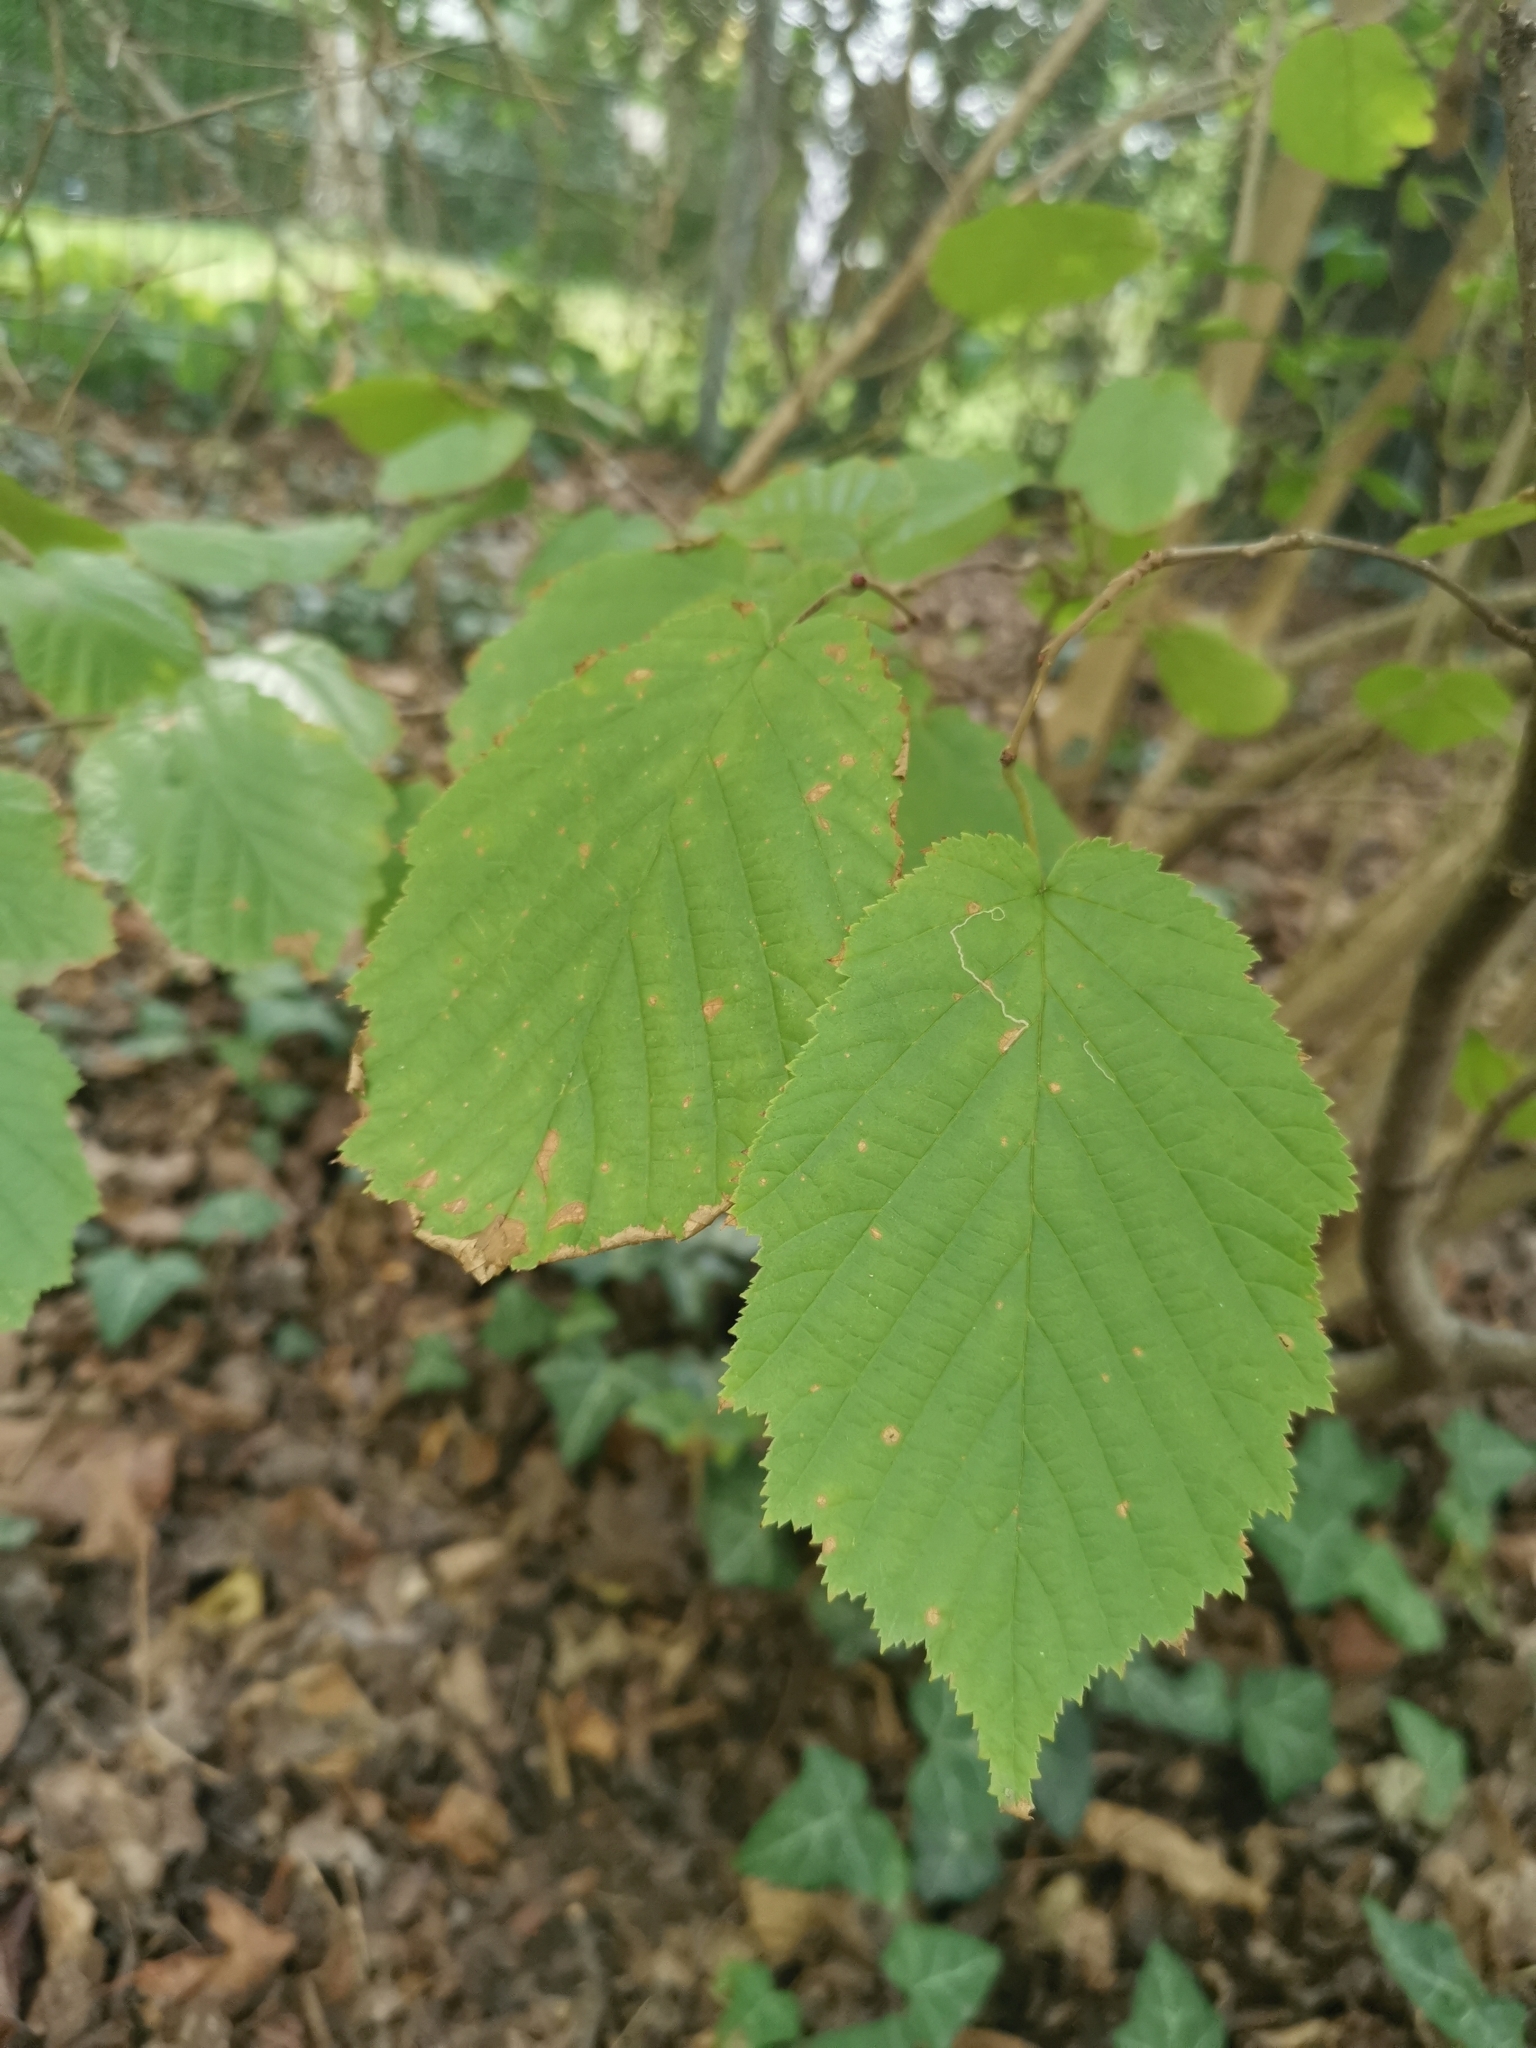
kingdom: Plantae
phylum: Tracheophyta
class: Magnoliopsida
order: Fagales
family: Betulaceae
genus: Corylus
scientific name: Corylus avellana
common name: European hazel
